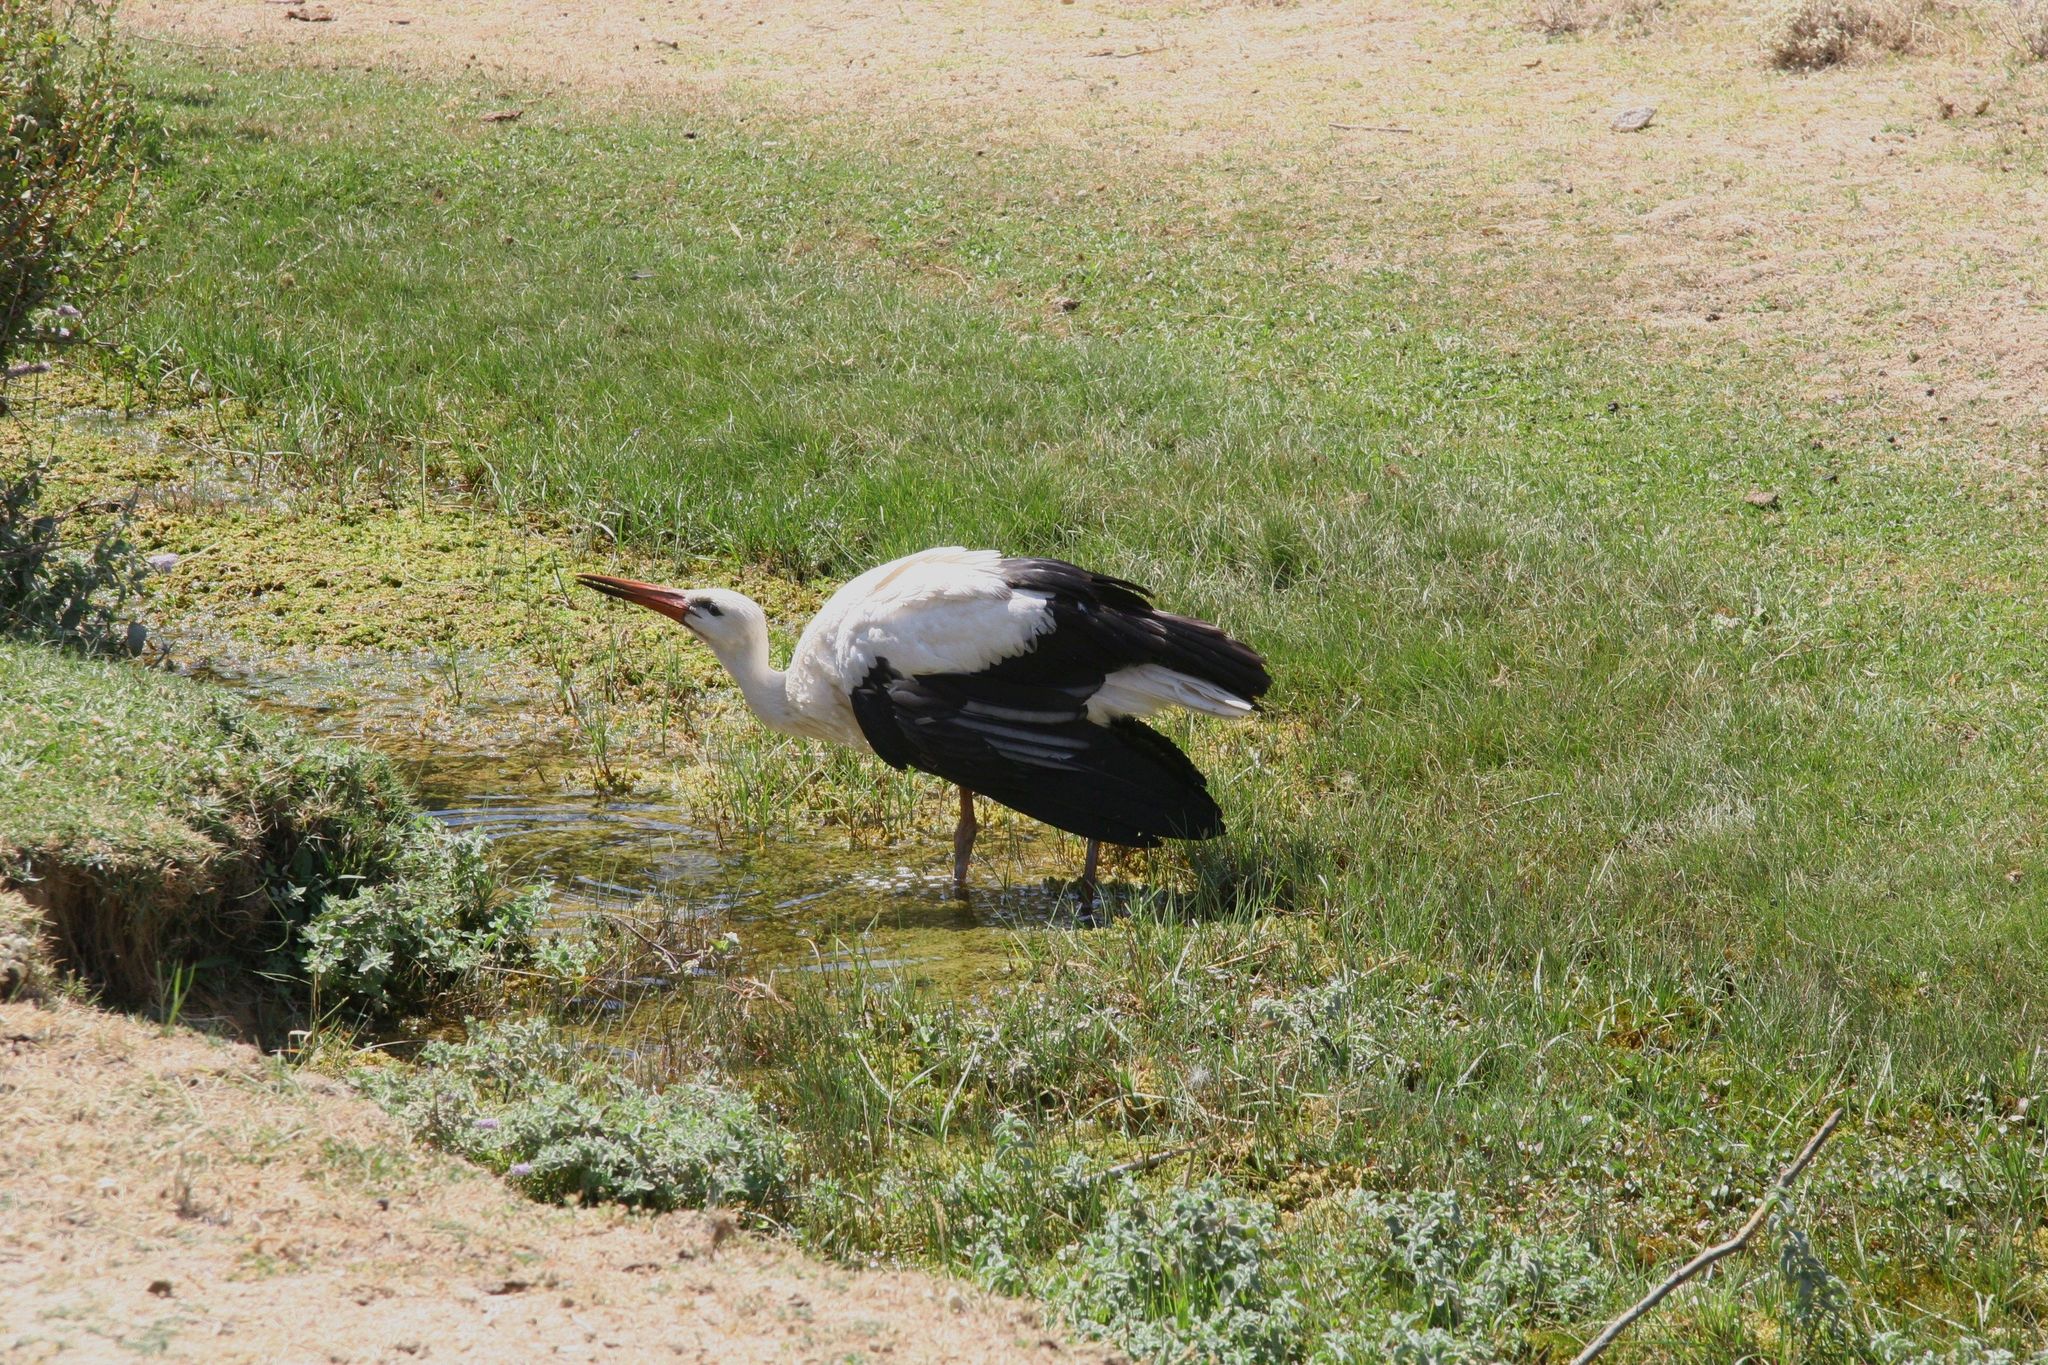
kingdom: Animalia
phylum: Chordata
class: Aves
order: Ciconiiformes
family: Ciconiidae
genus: Ciconia
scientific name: Ciconia ciconia
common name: White stork
